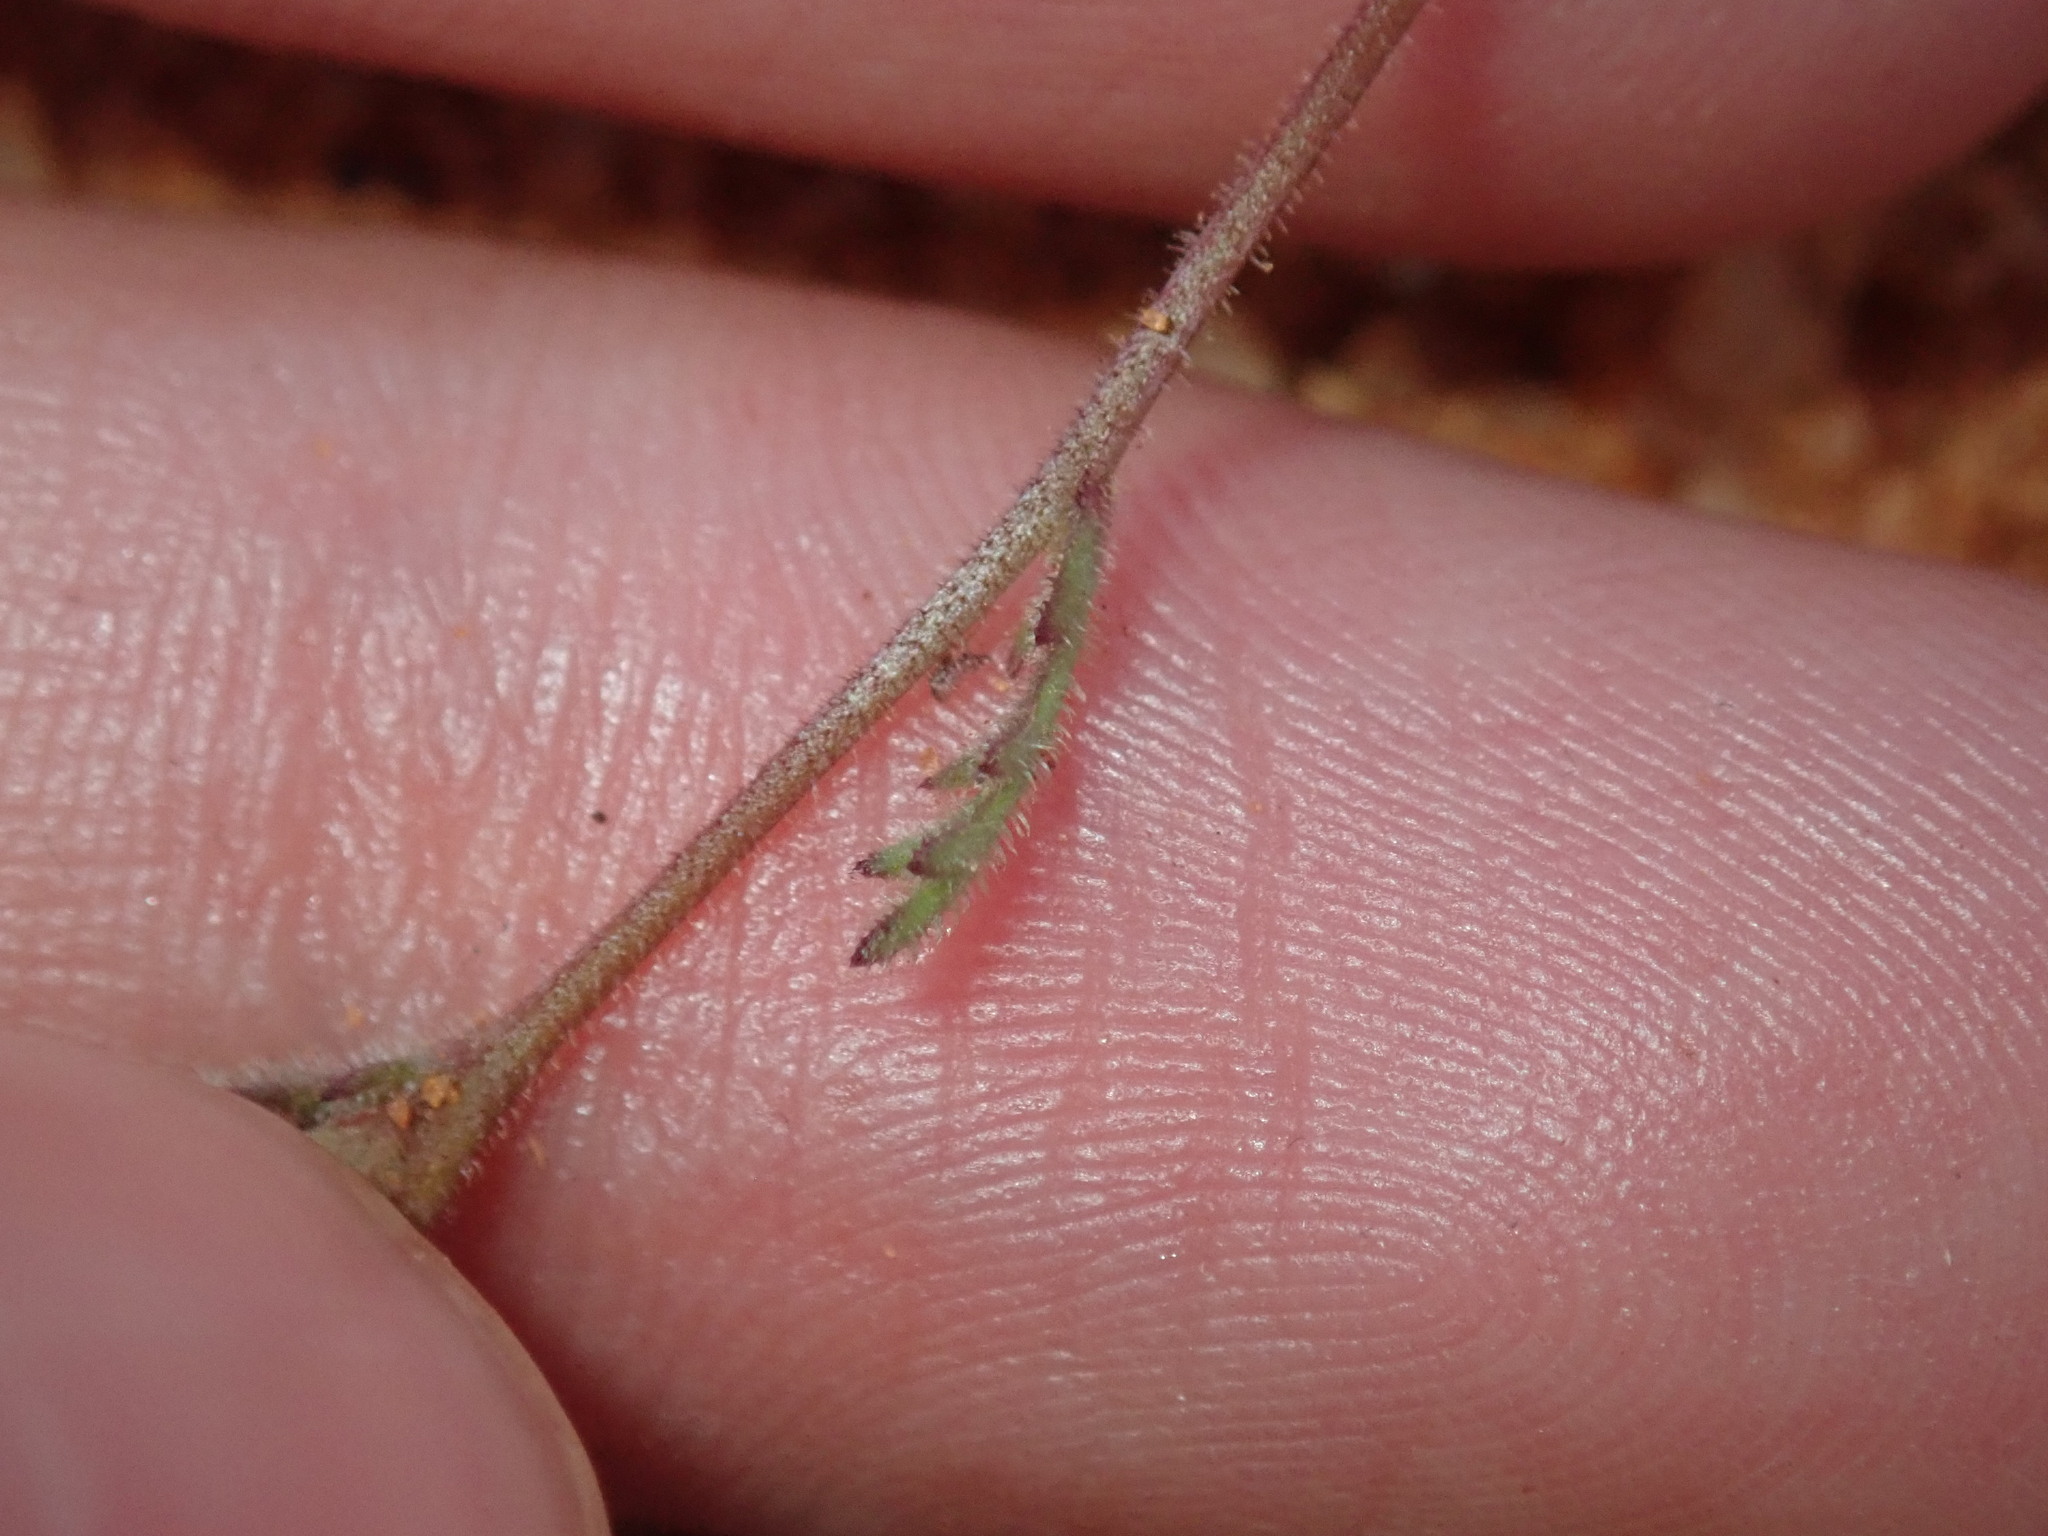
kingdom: Plantae
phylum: Tracheophyta
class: Magnoliopsida
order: Asterales
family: Asteraceae
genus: Brachyscome
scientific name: Brachyscome ciliaris
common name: Variable daisy
